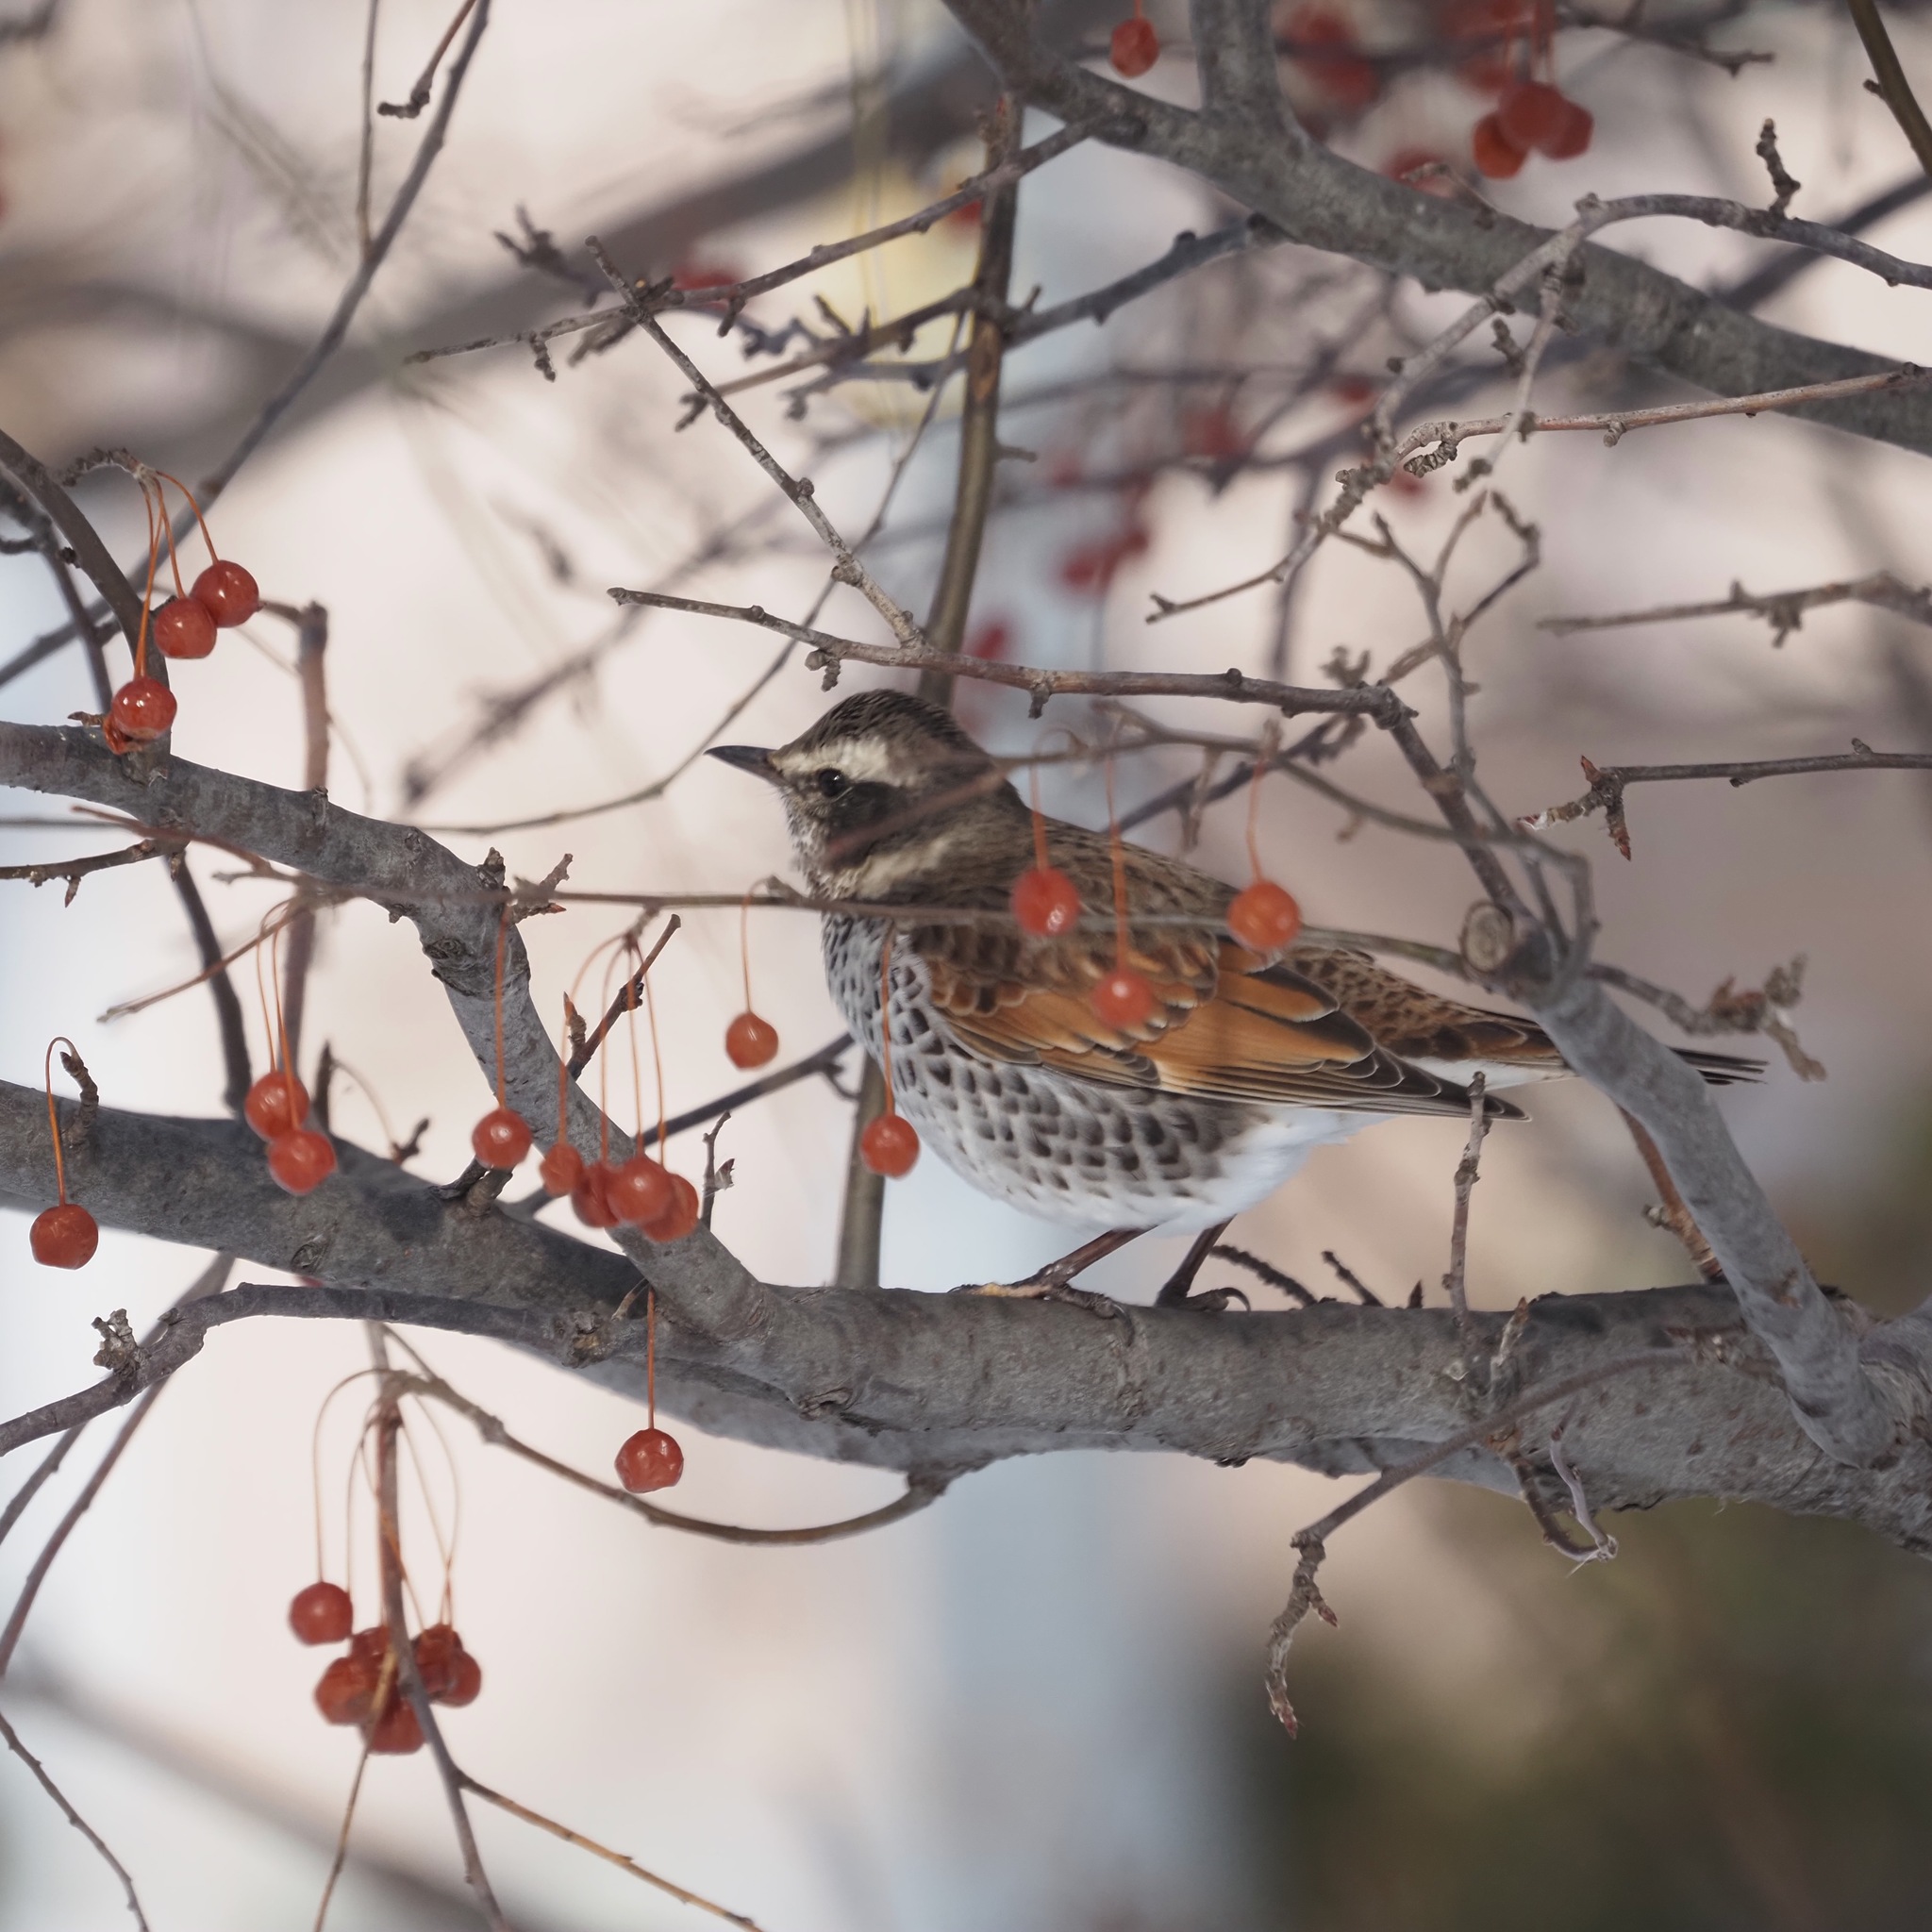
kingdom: Animalia
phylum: Chordata
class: Aves
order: Passeriformes
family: Turdidae
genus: Turdus
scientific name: Turdus eunomus
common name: Dusky thrush
